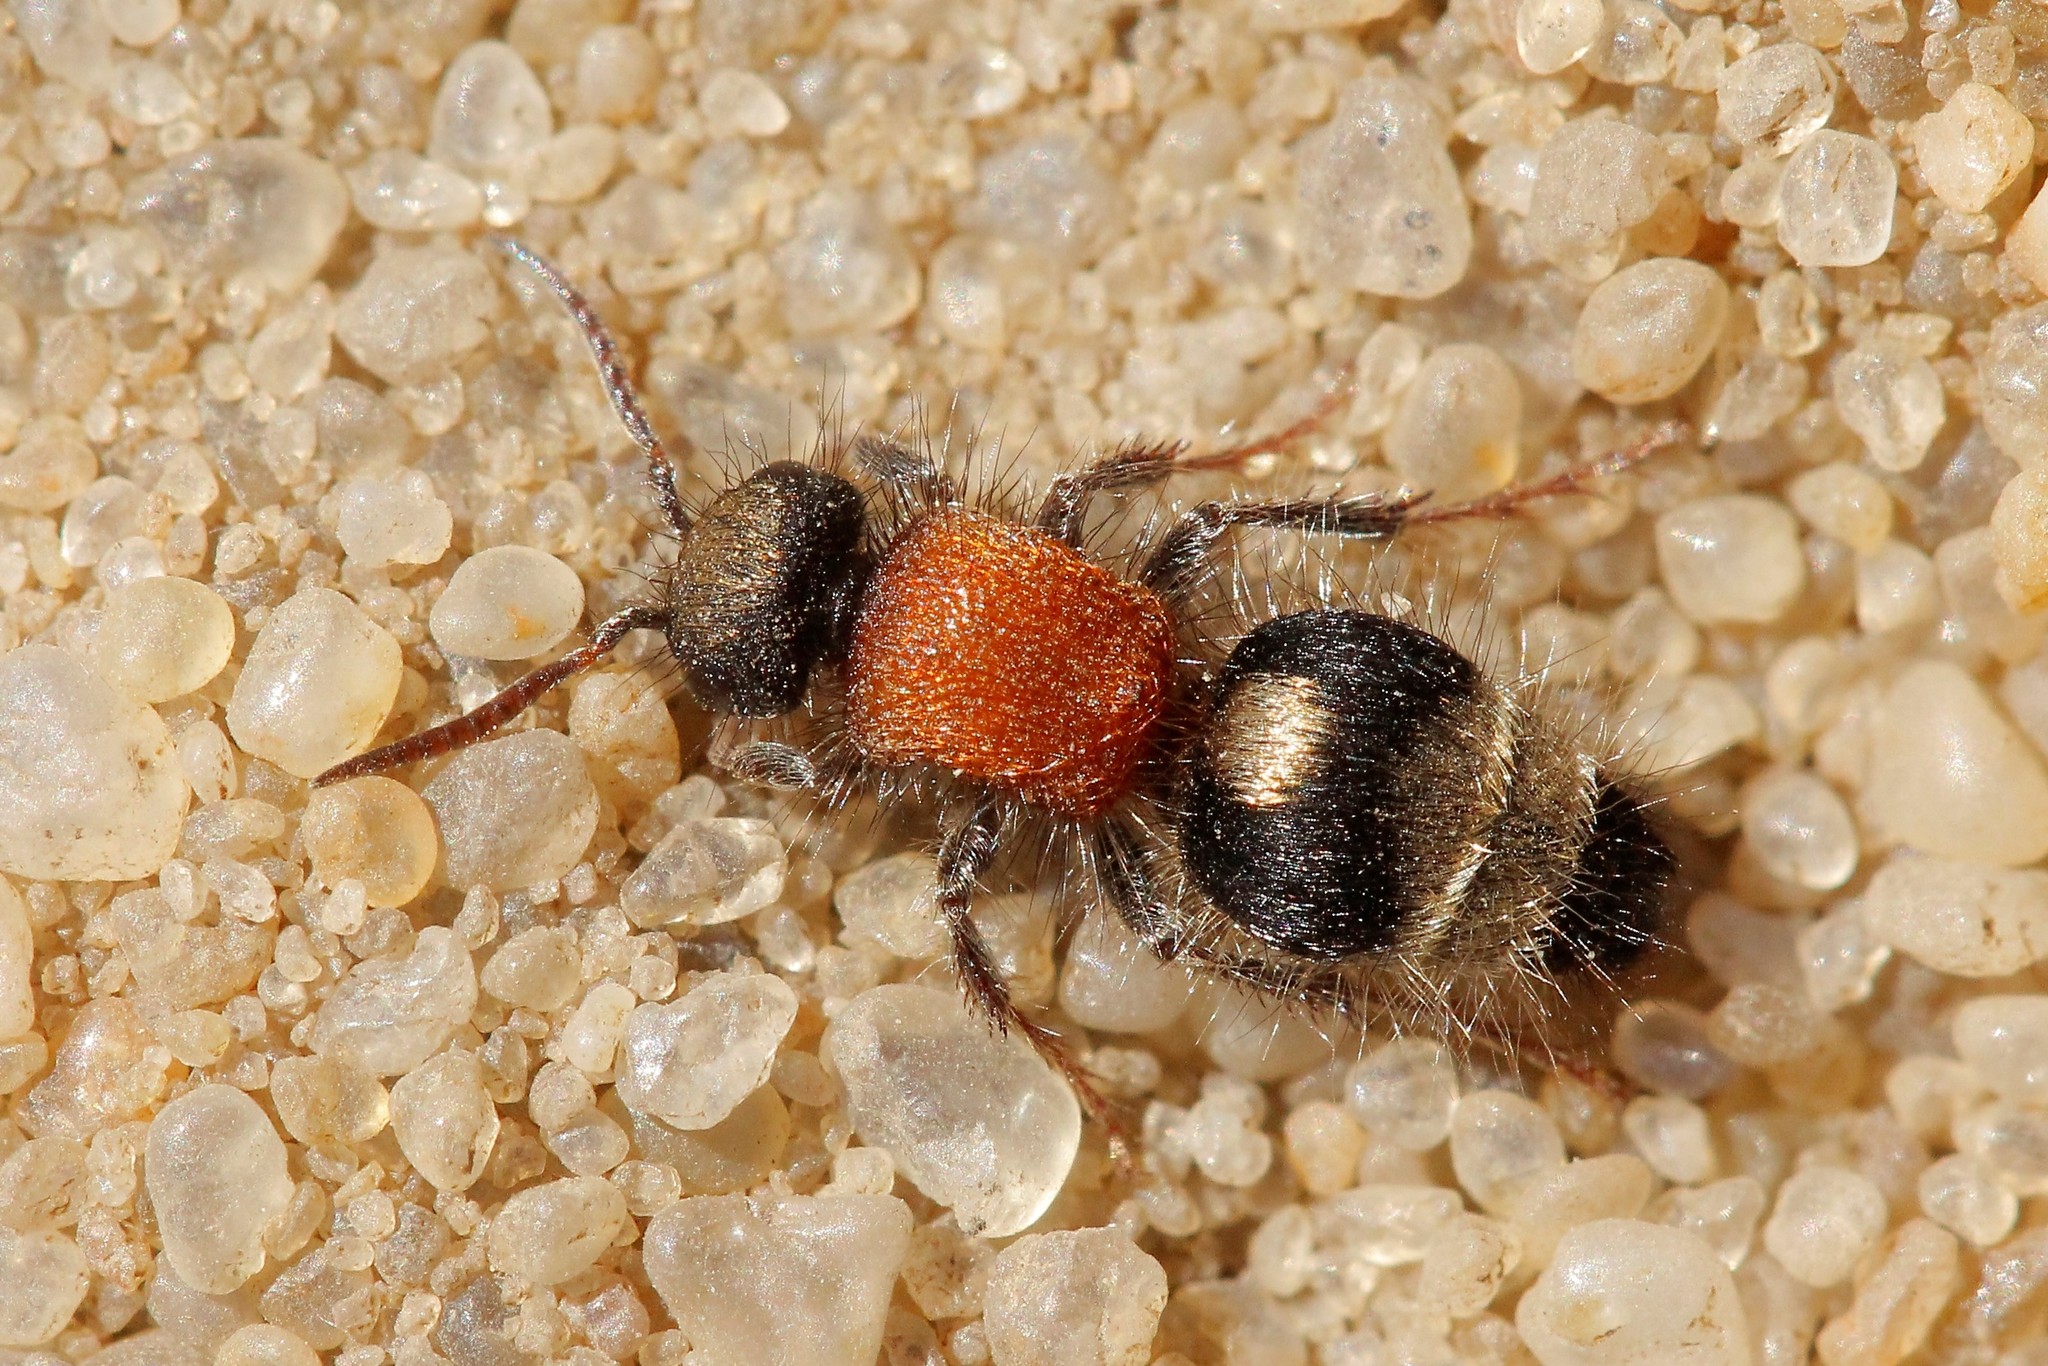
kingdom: Animalia
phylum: Arthropoda
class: Insecta
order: Hymenoptera
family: Mutillidae
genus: Nemka
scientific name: Nemka viduata
